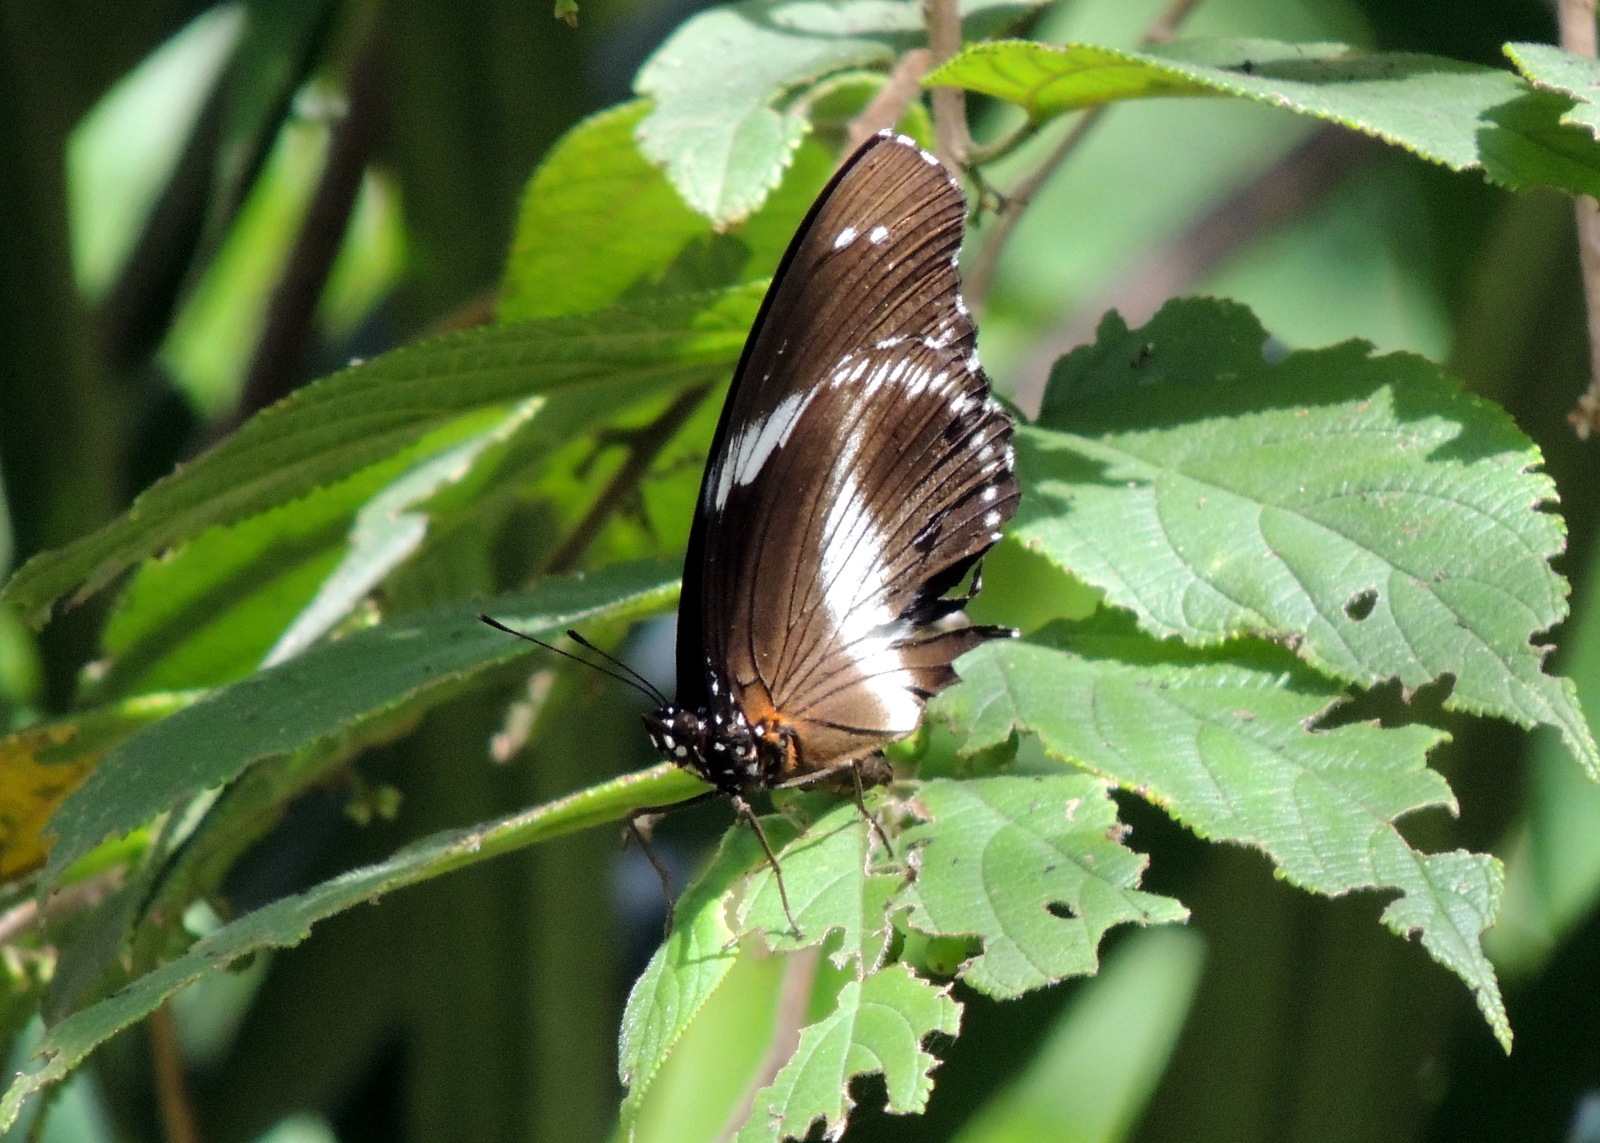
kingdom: Animalia
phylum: Arthropoda
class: Insecta
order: Lepidoptera
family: Nymphalidae
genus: Hypolimnas
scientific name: Hypolimnas salmacis
